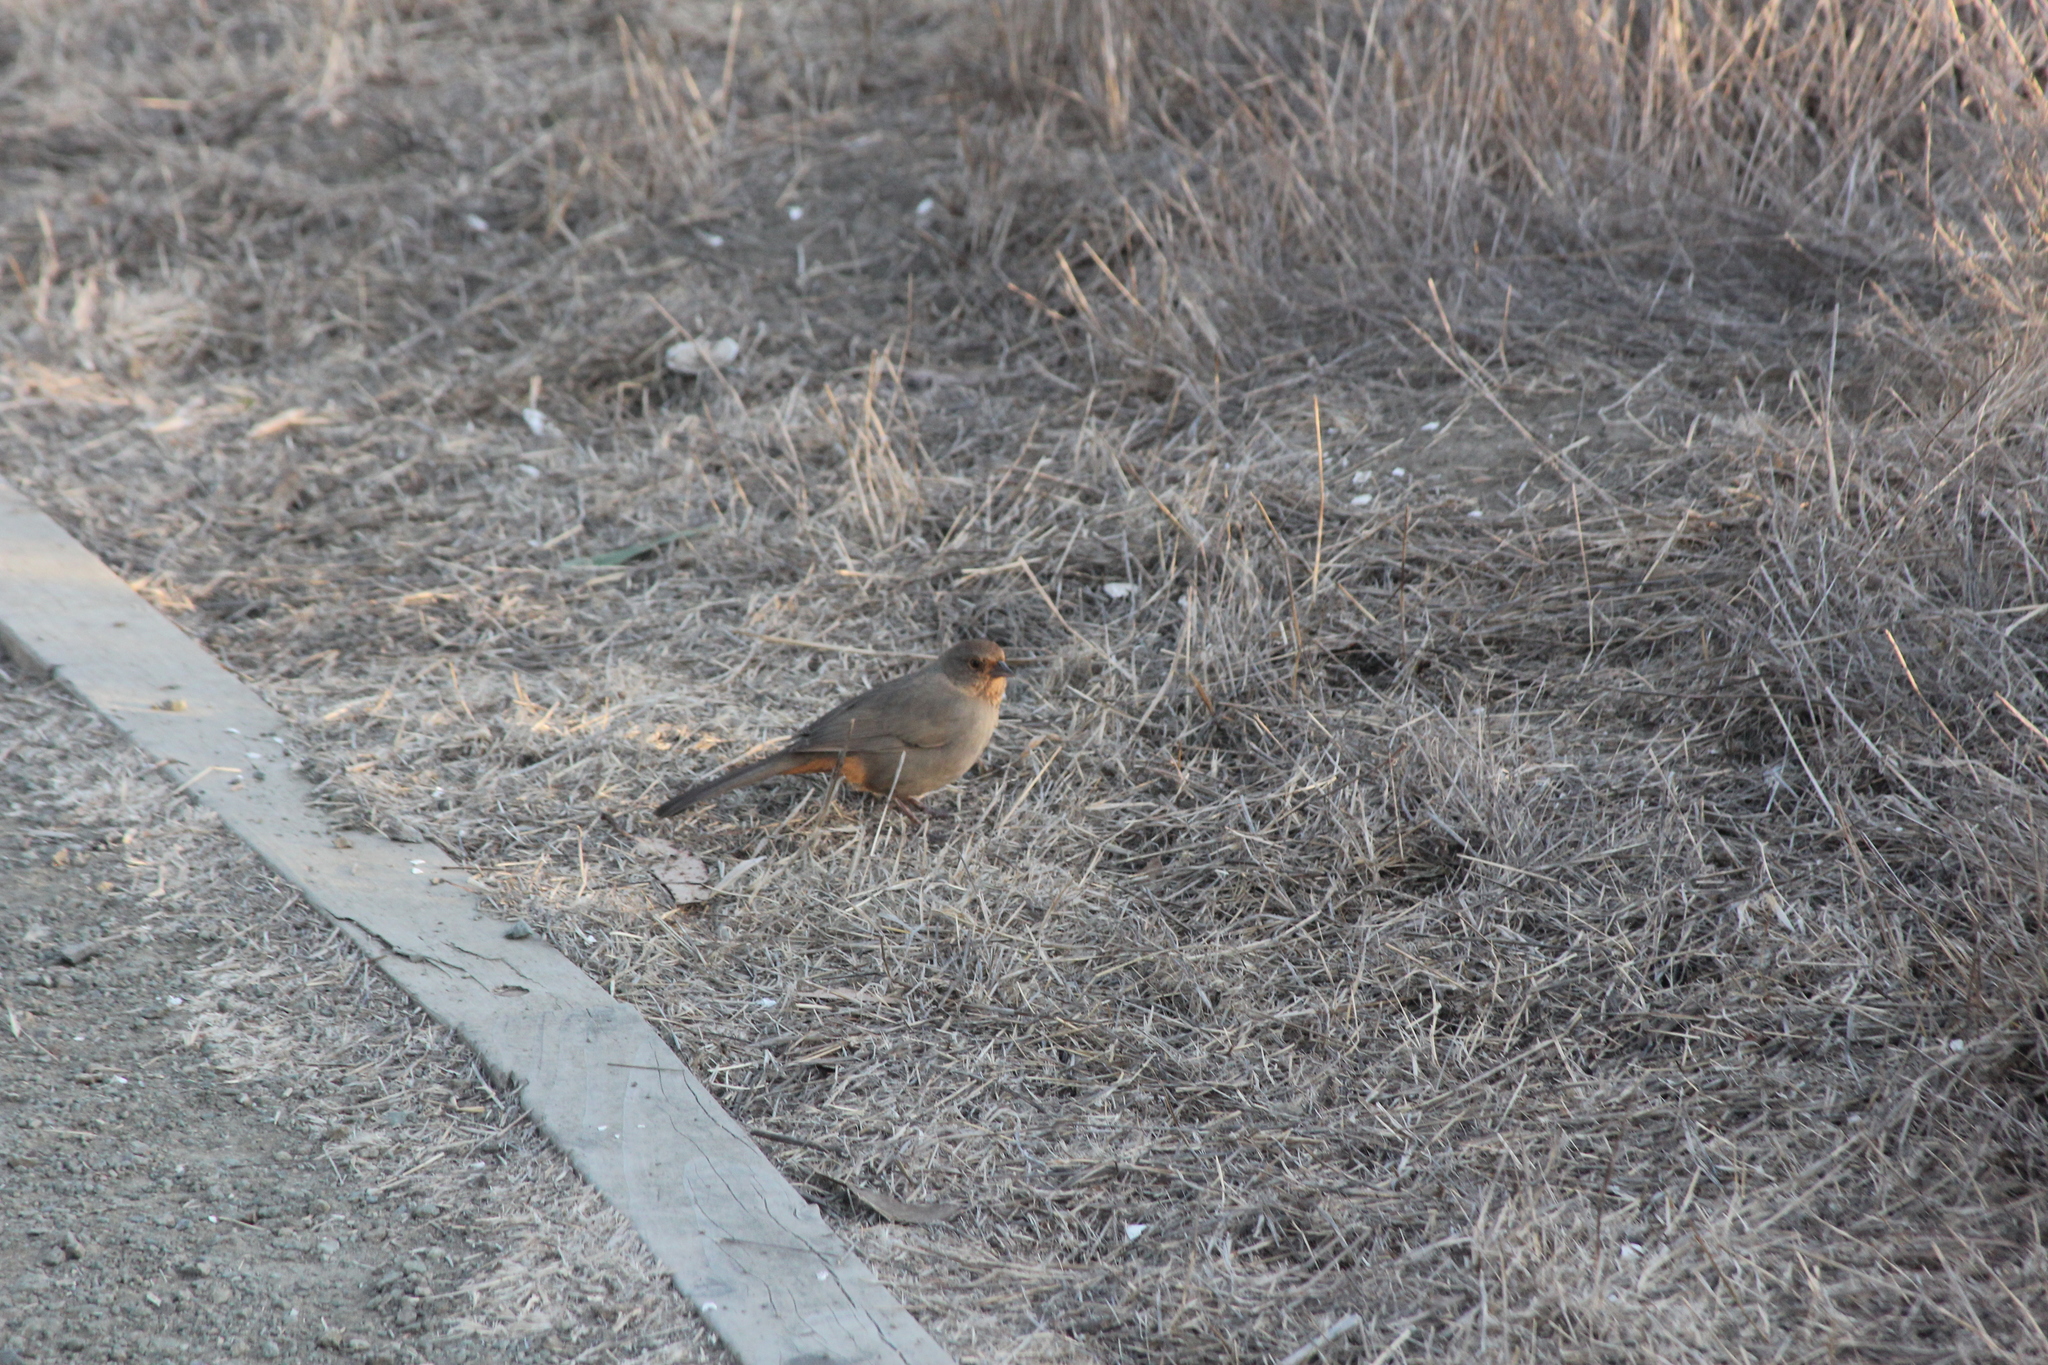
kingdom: Animalia
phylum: Chordata
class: Aves
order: Passeriformes
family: Passerellidae
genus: Melozone
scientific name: Melozone crissalis
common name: California towhee
